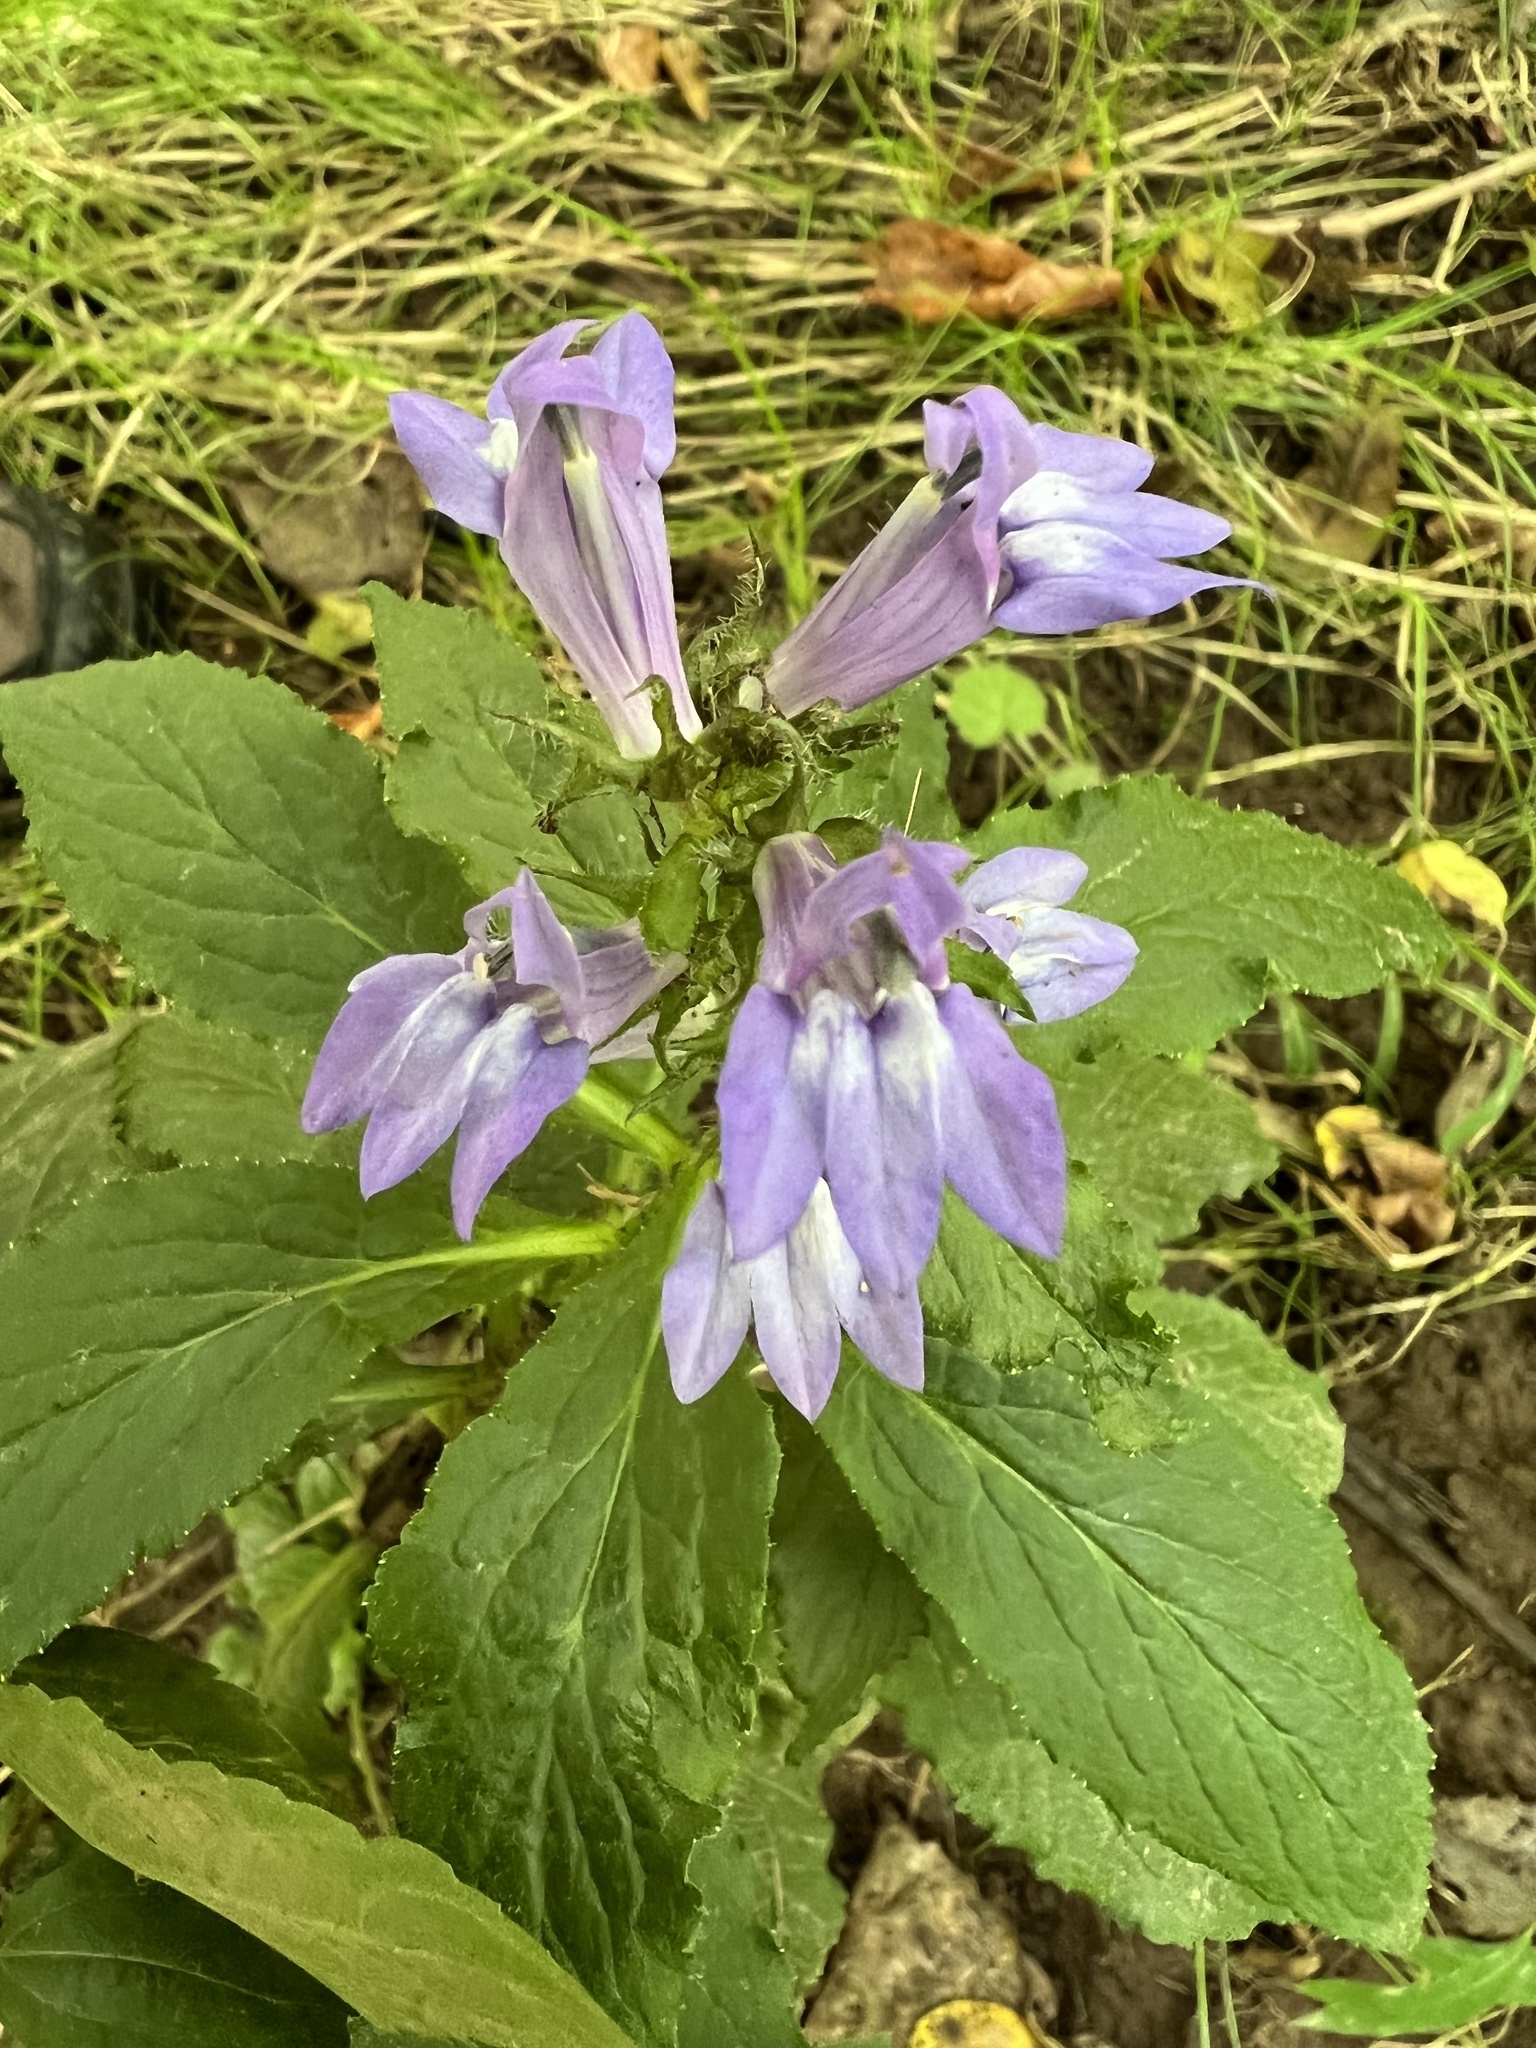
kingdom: Plantae
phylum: Tracheophyta
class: Magnoliopsida
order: Asterales
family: Campanulaceae
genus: Lobelia
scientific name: Lobelia siphilitica
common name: Great lobelia
